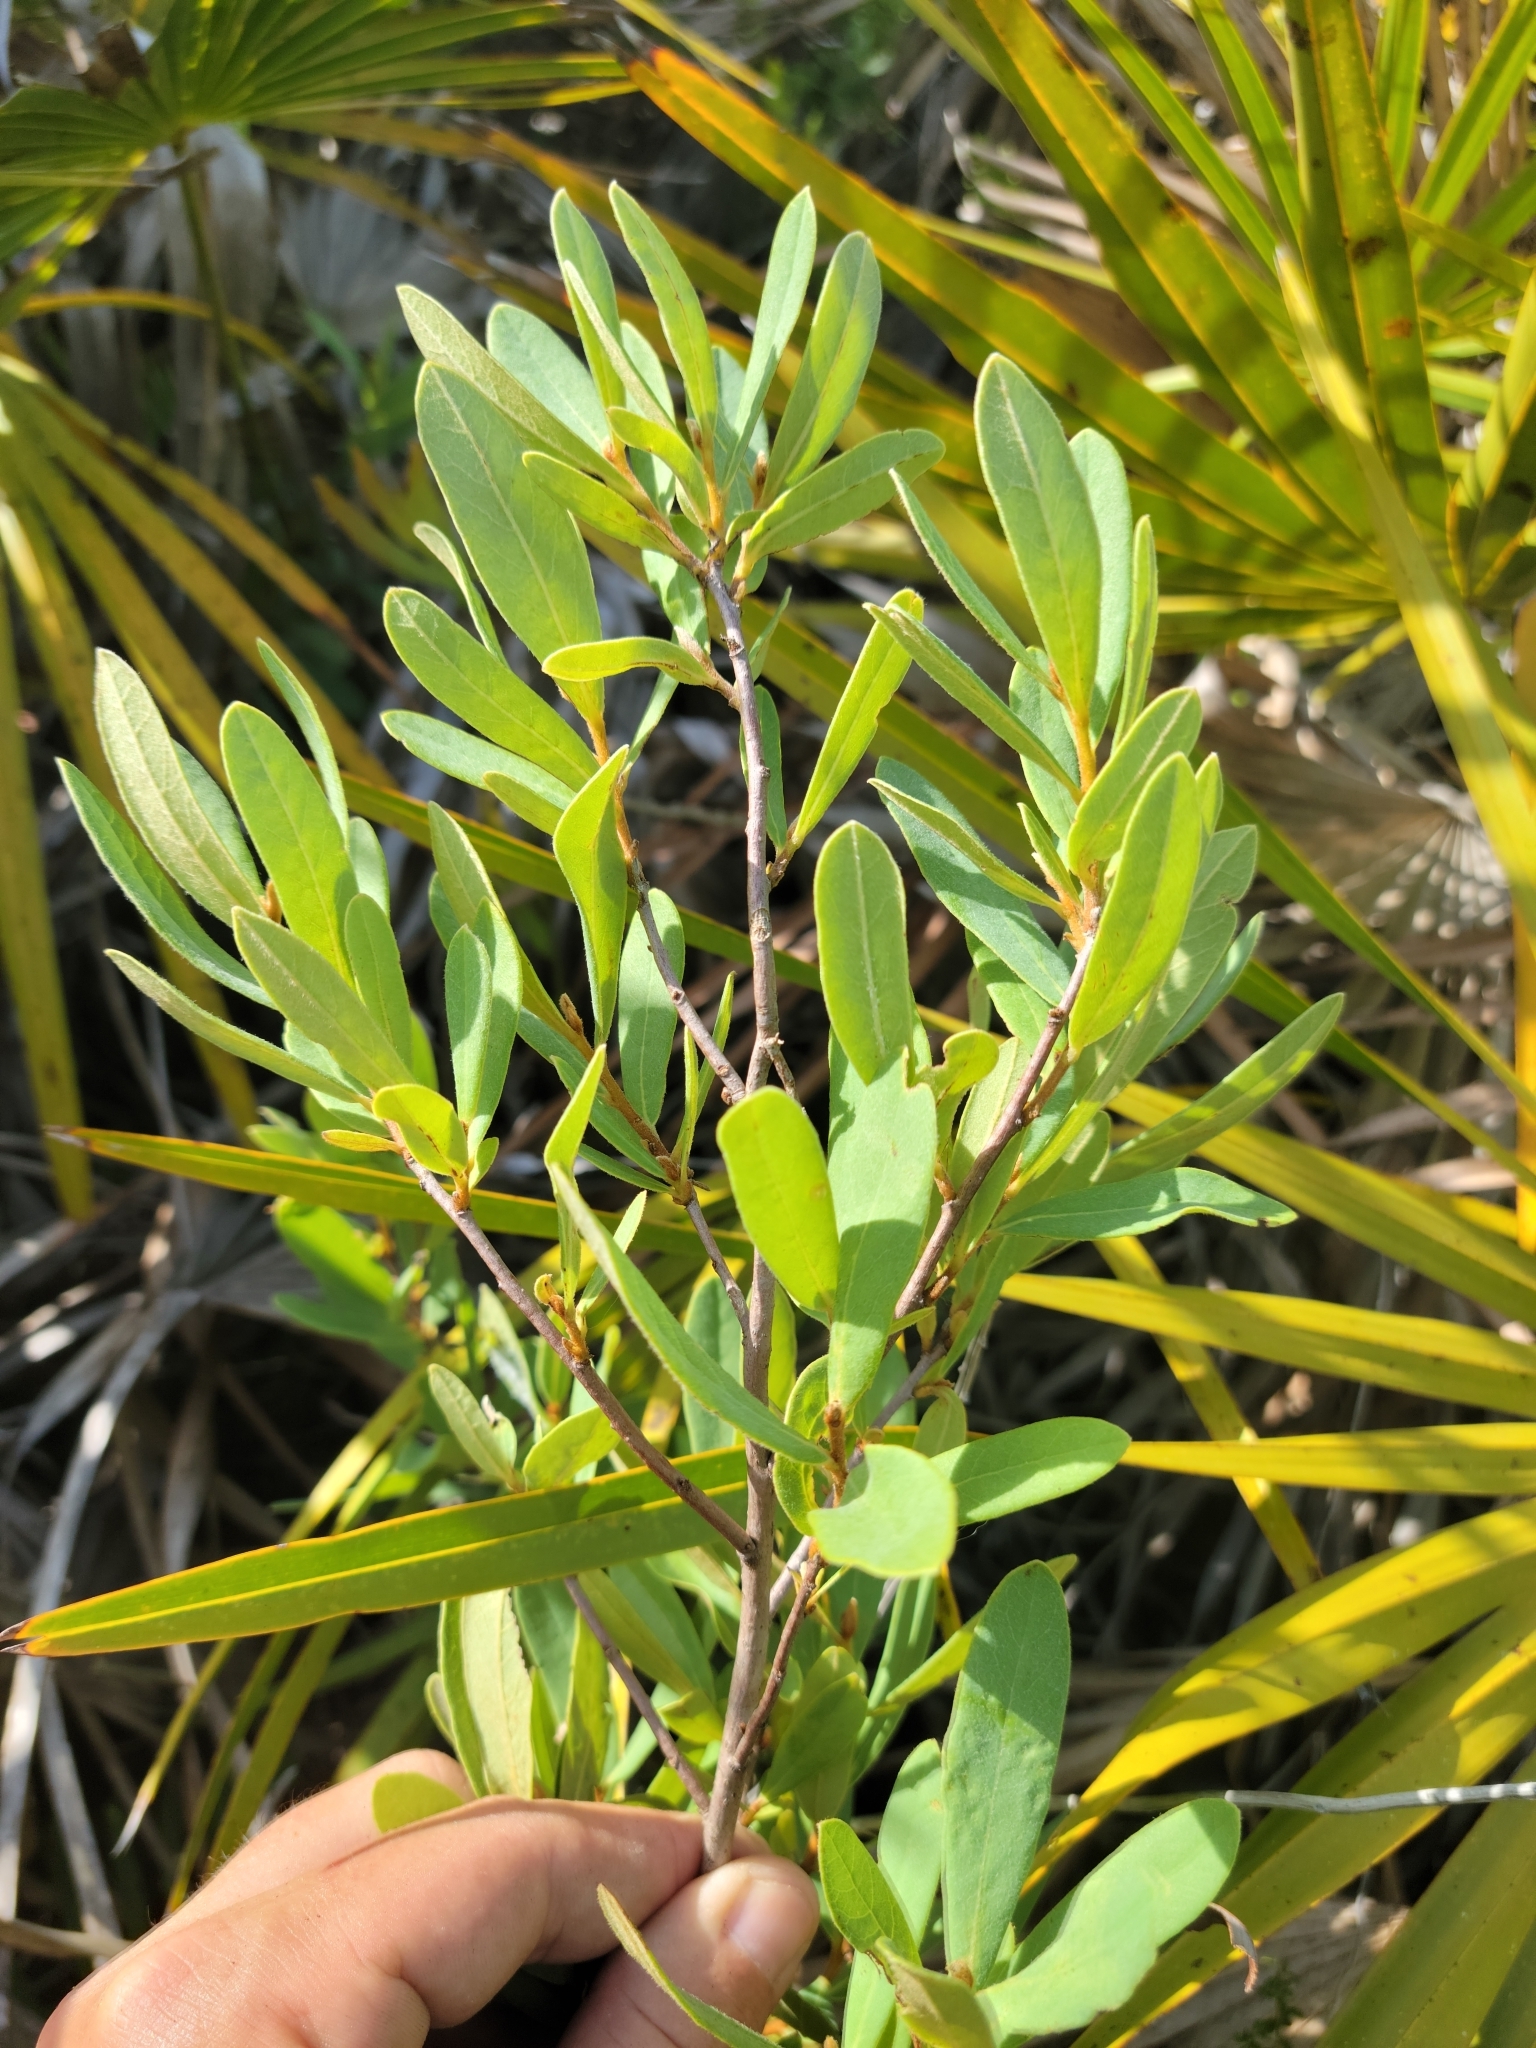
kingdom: Plantae
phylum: Tracheophyta
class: Magnoliopsida
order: Magnoliales
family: Annonaceae
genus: Asimina
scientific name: Asimina reticulata
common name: Flag pawpaw
